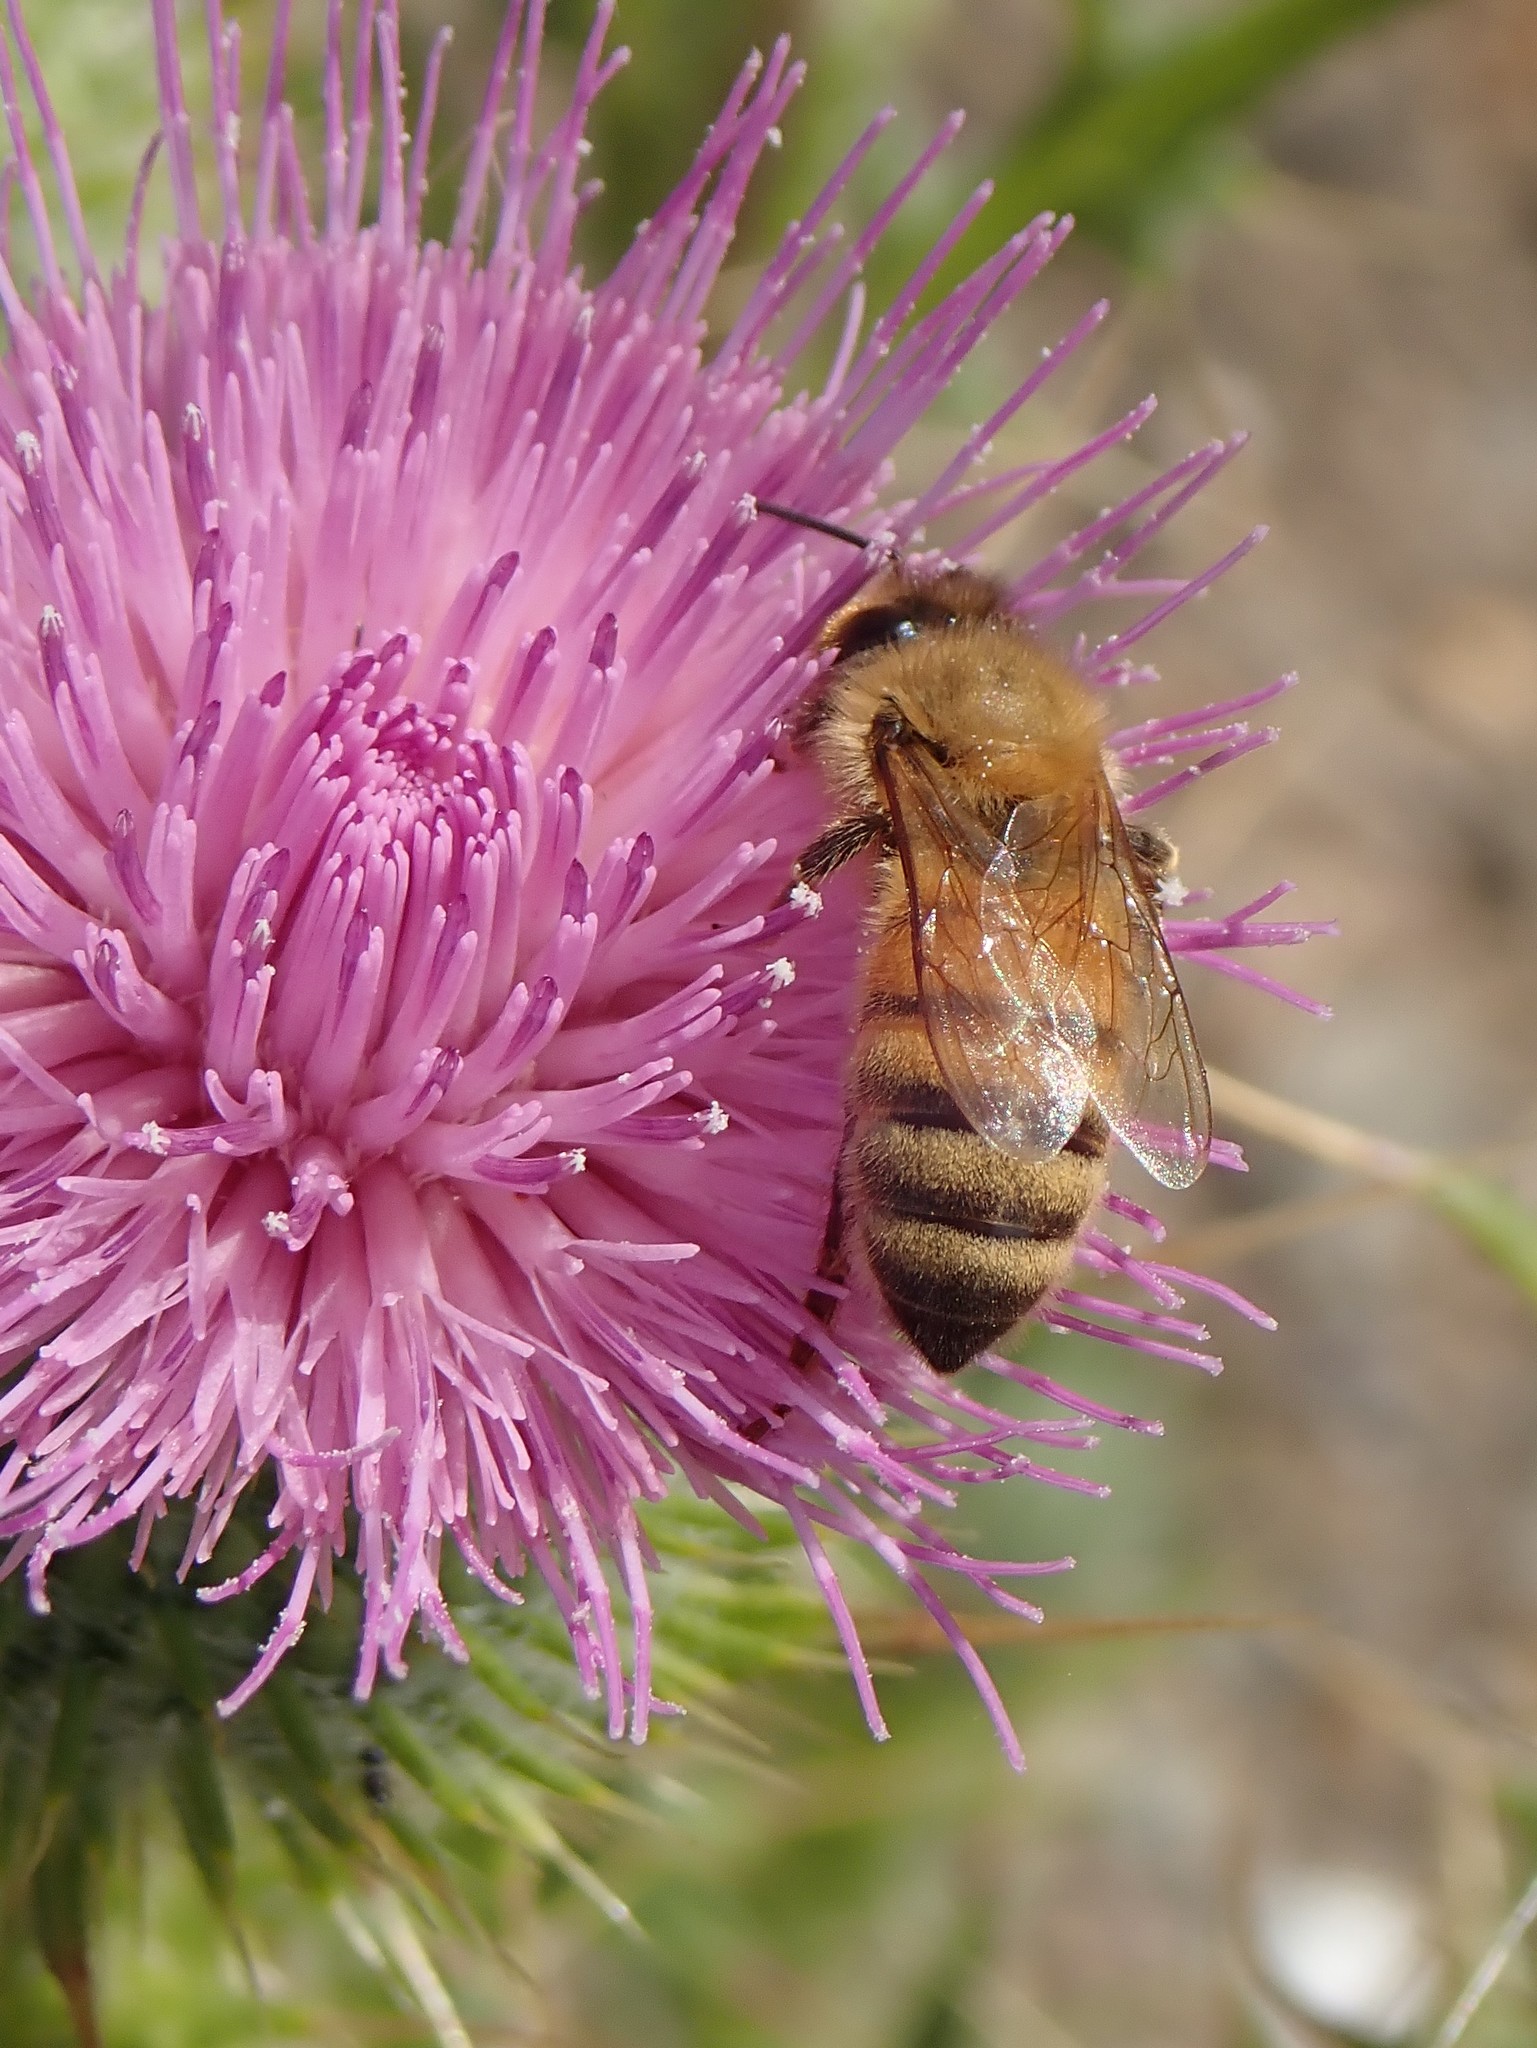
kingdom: Animalia
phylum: Arthropoda
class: Insecta
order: Hymenoptera
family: Apidae
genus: Apis
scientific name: Apis mellifera
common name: Honey bee
